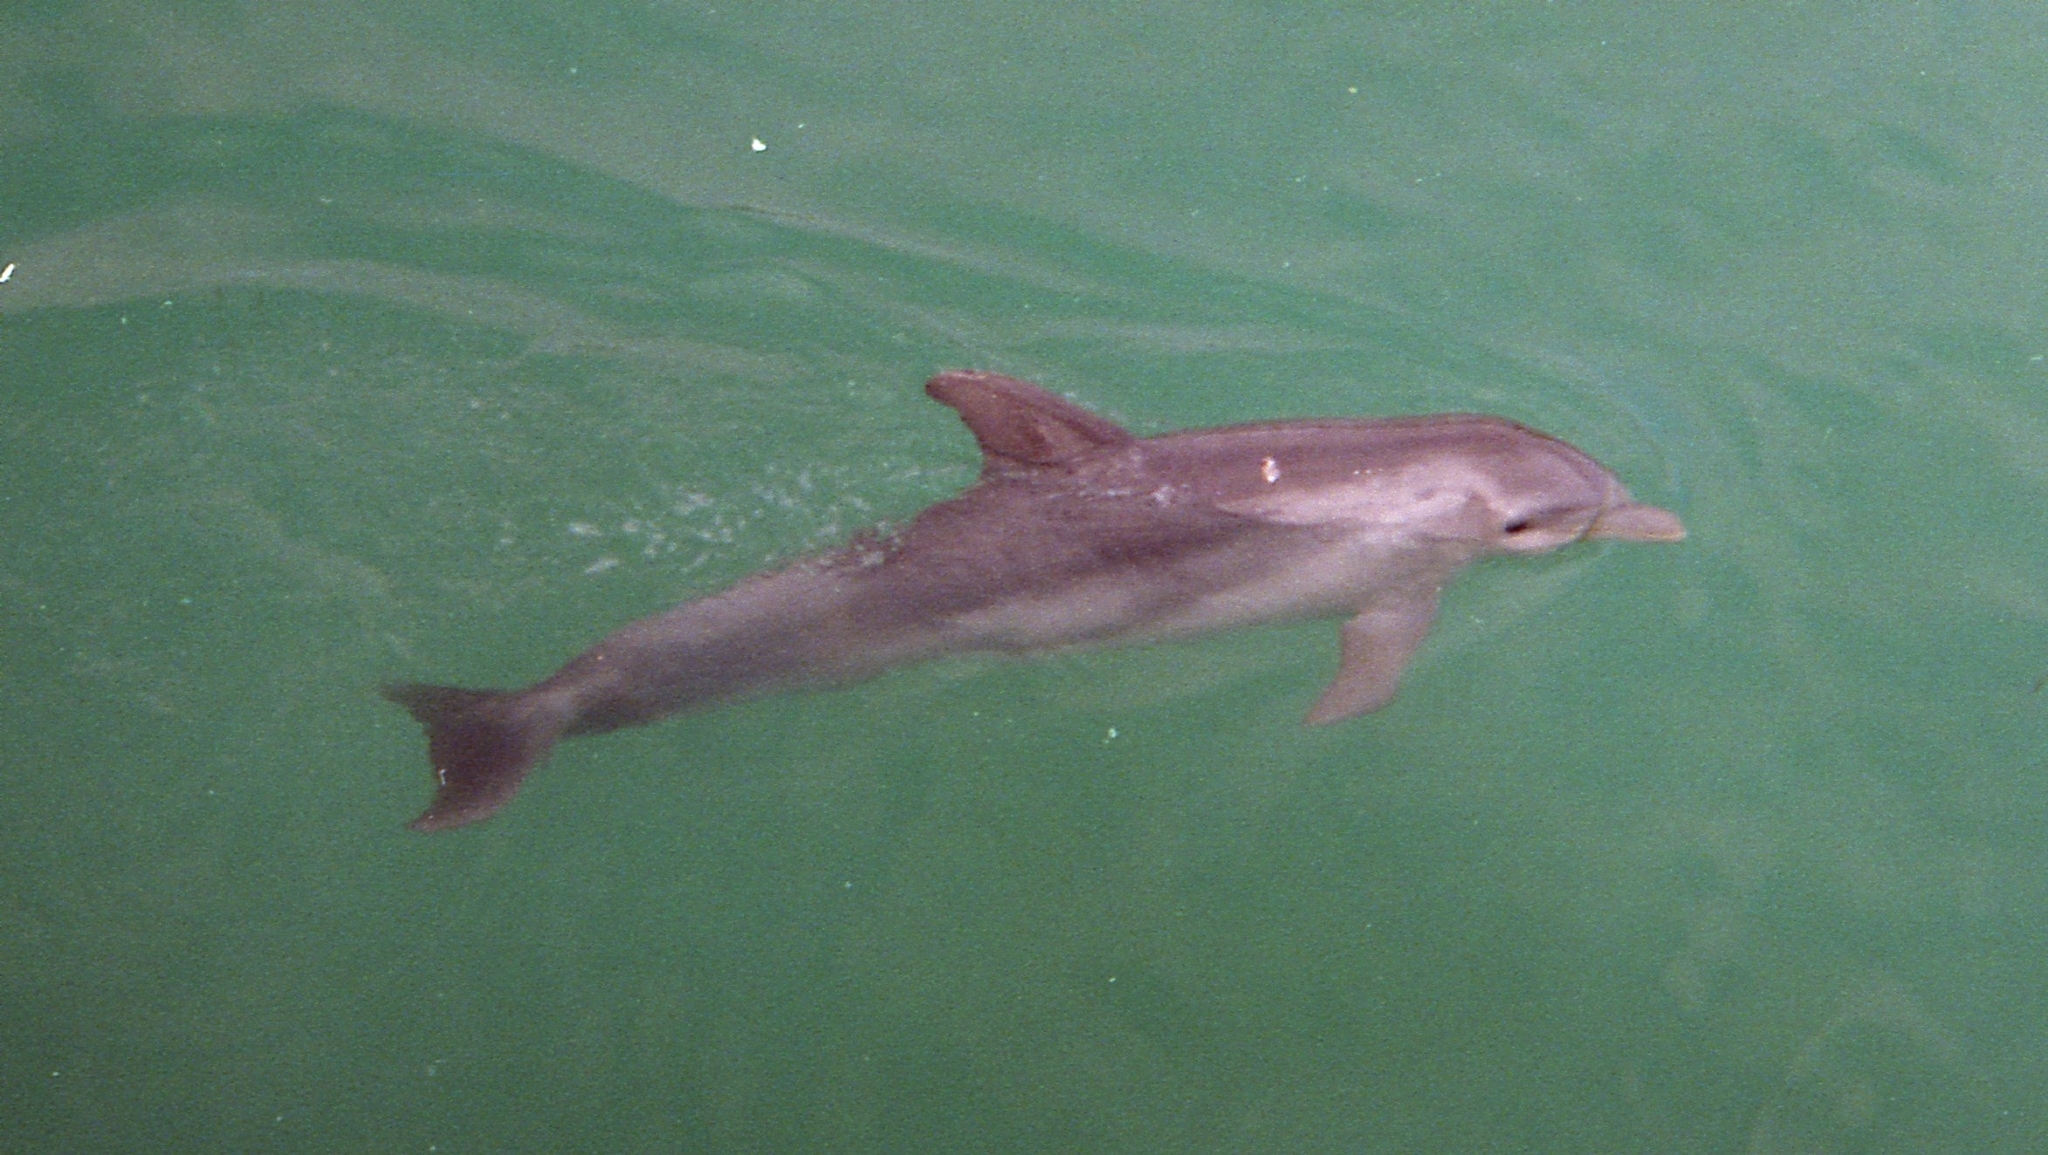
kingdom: Animalia
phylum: Chordata
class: Mammalia
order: Cetacea
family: Delphinidae
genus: Tursiops
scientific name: Tursiops truncatus
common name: Bottlenose dolphin
